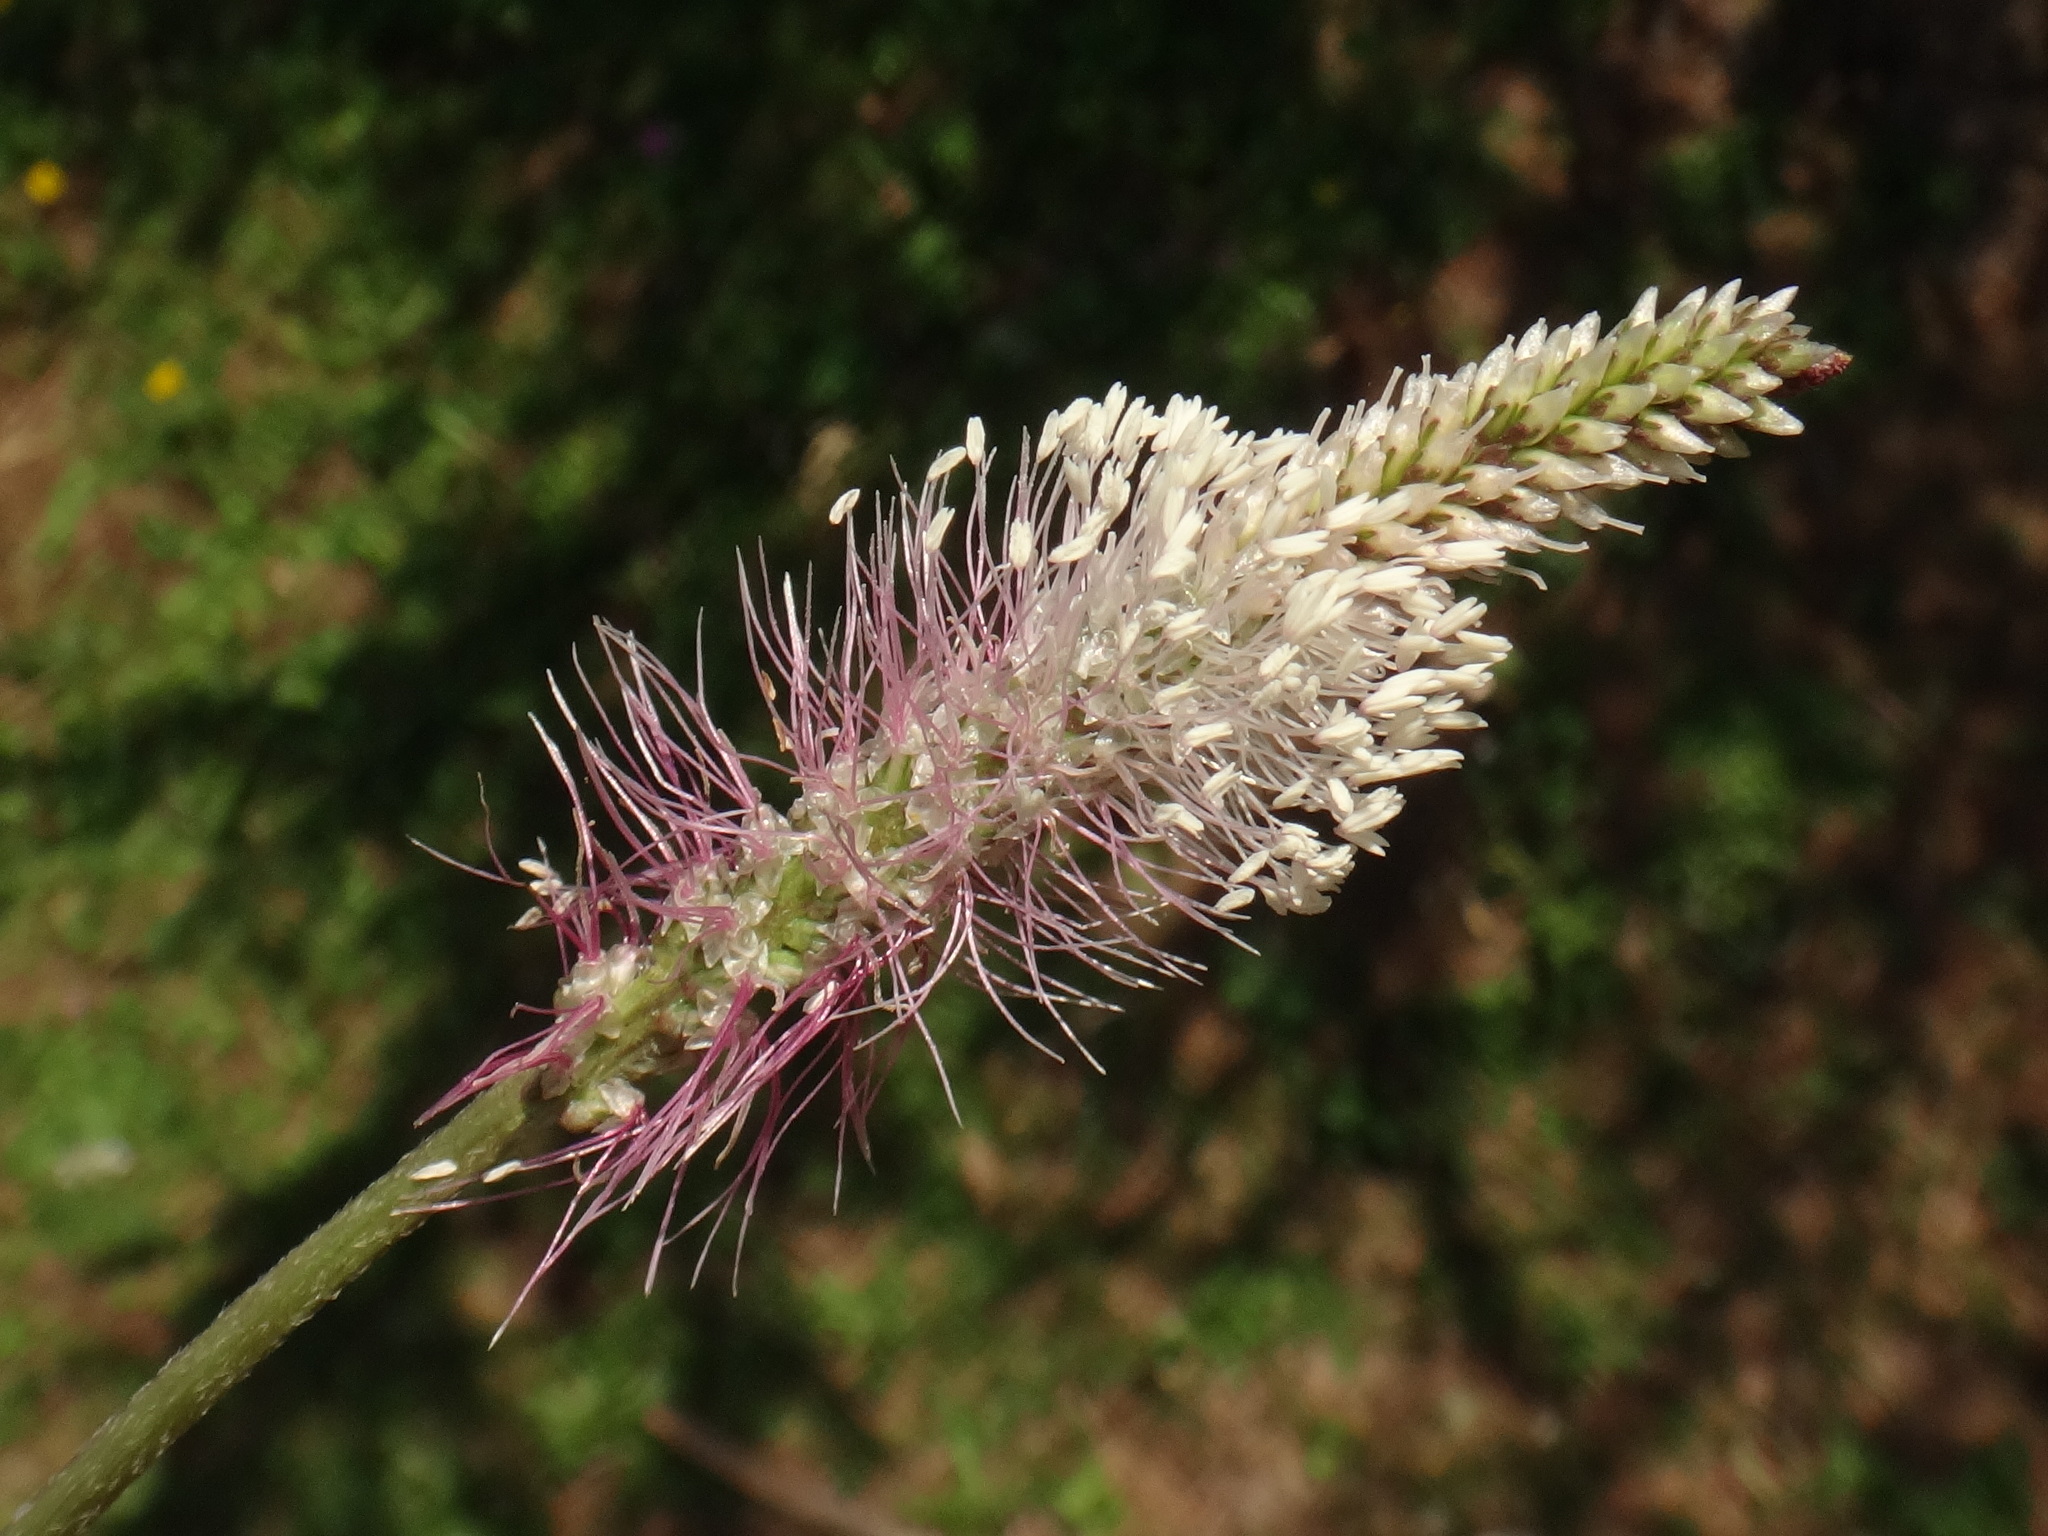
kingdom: Plantae
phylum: Tracheophyta
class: Magnoliopsida
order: Lamiales
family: Plantaginaceae
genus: Plantago
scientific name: Plantago media
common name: Hoary plantain
